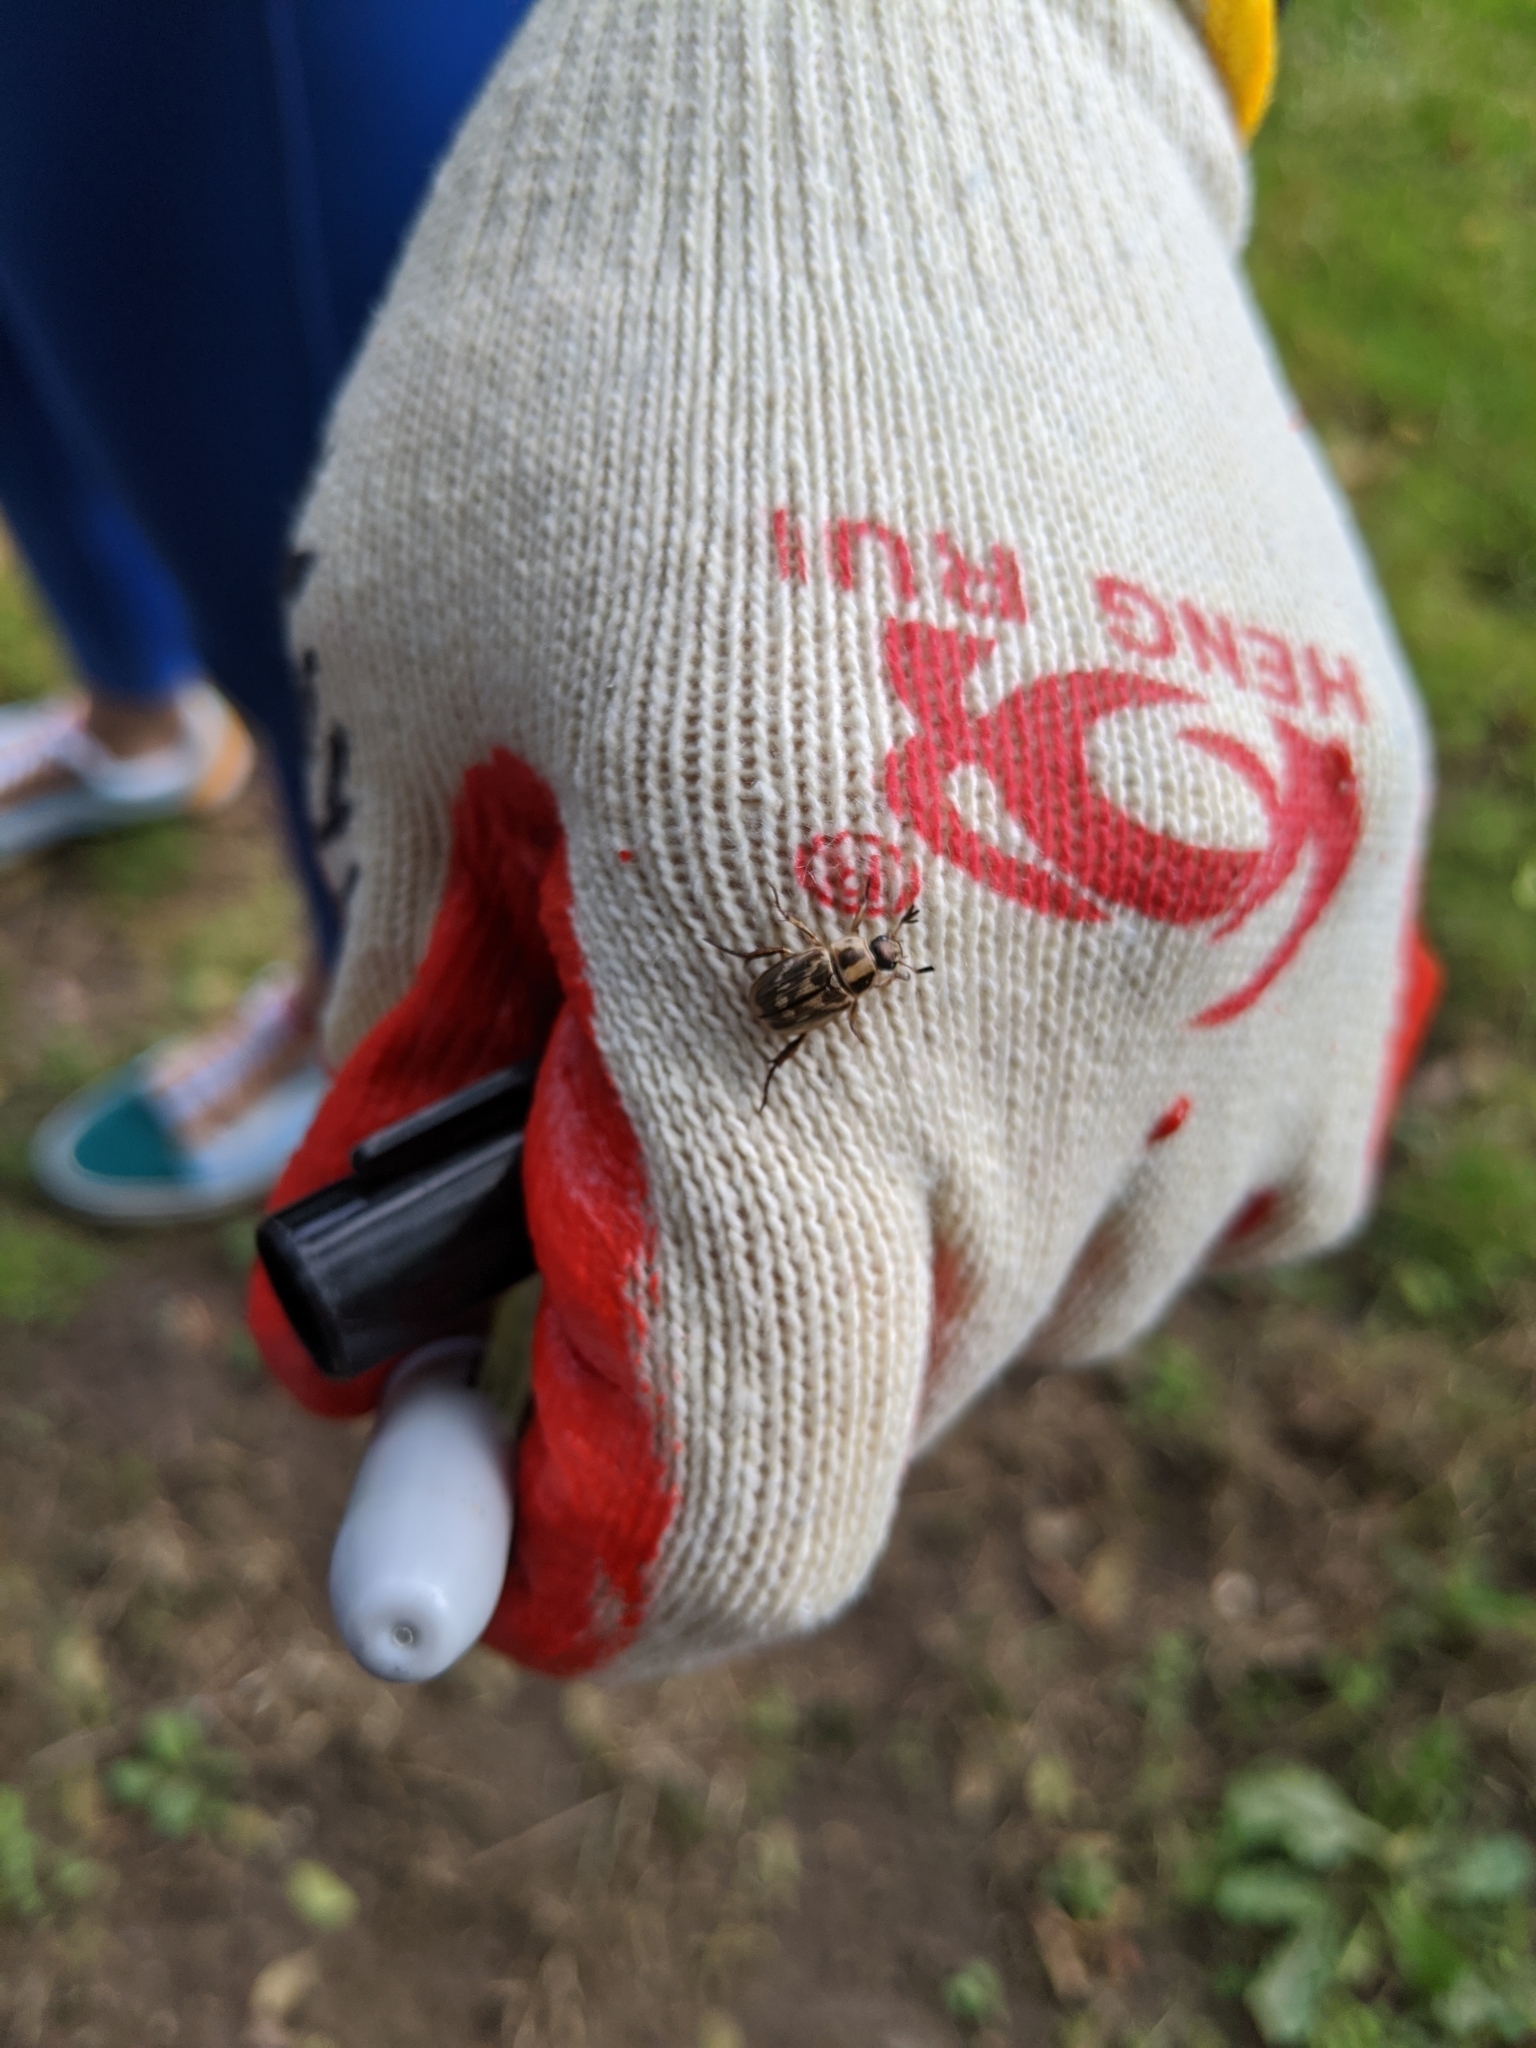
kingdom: Animalia
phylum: Arthropoda
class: Insecta
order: Coleoptera
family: Scarabaeidae
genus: Exomala
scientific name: Exomala orientalis
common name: Oriental beetle
